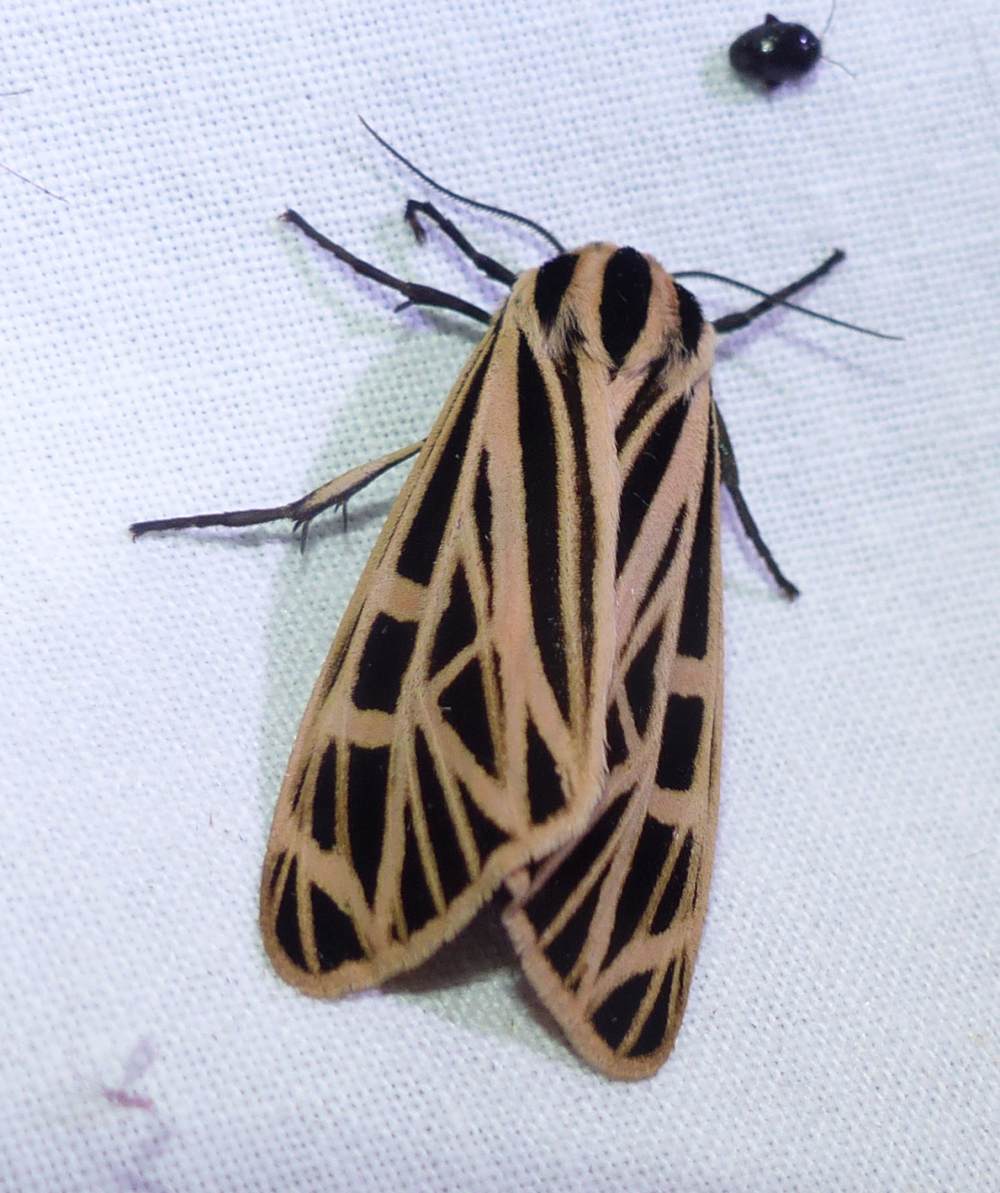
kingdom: Animalia
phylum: Arthropoda
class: Insecta
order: Lepidoptera
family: Erebidae
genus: Grammia
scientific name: Grammia virgo
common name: Virgin tiger moth
